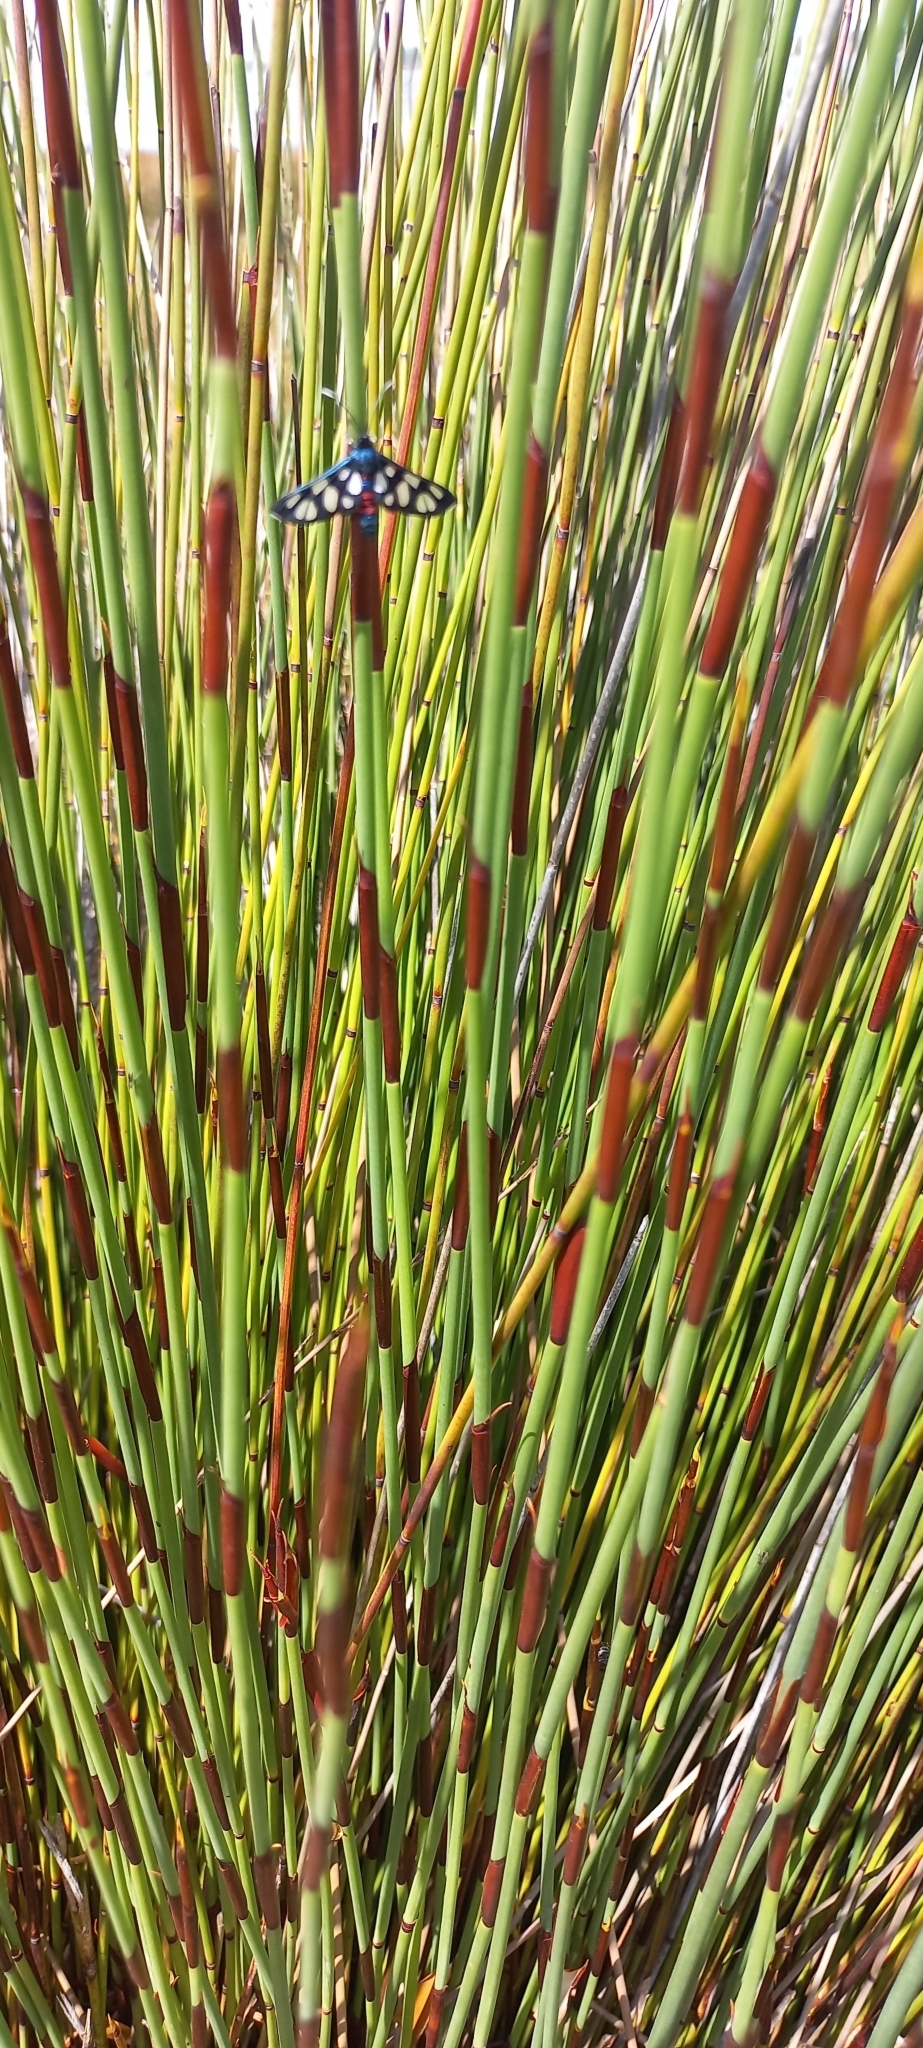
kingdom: Animalia
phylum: Arthropoda
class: Insecta
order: Lepidoptera
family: Erebidae
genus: Amata
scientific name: Amata cerbera
